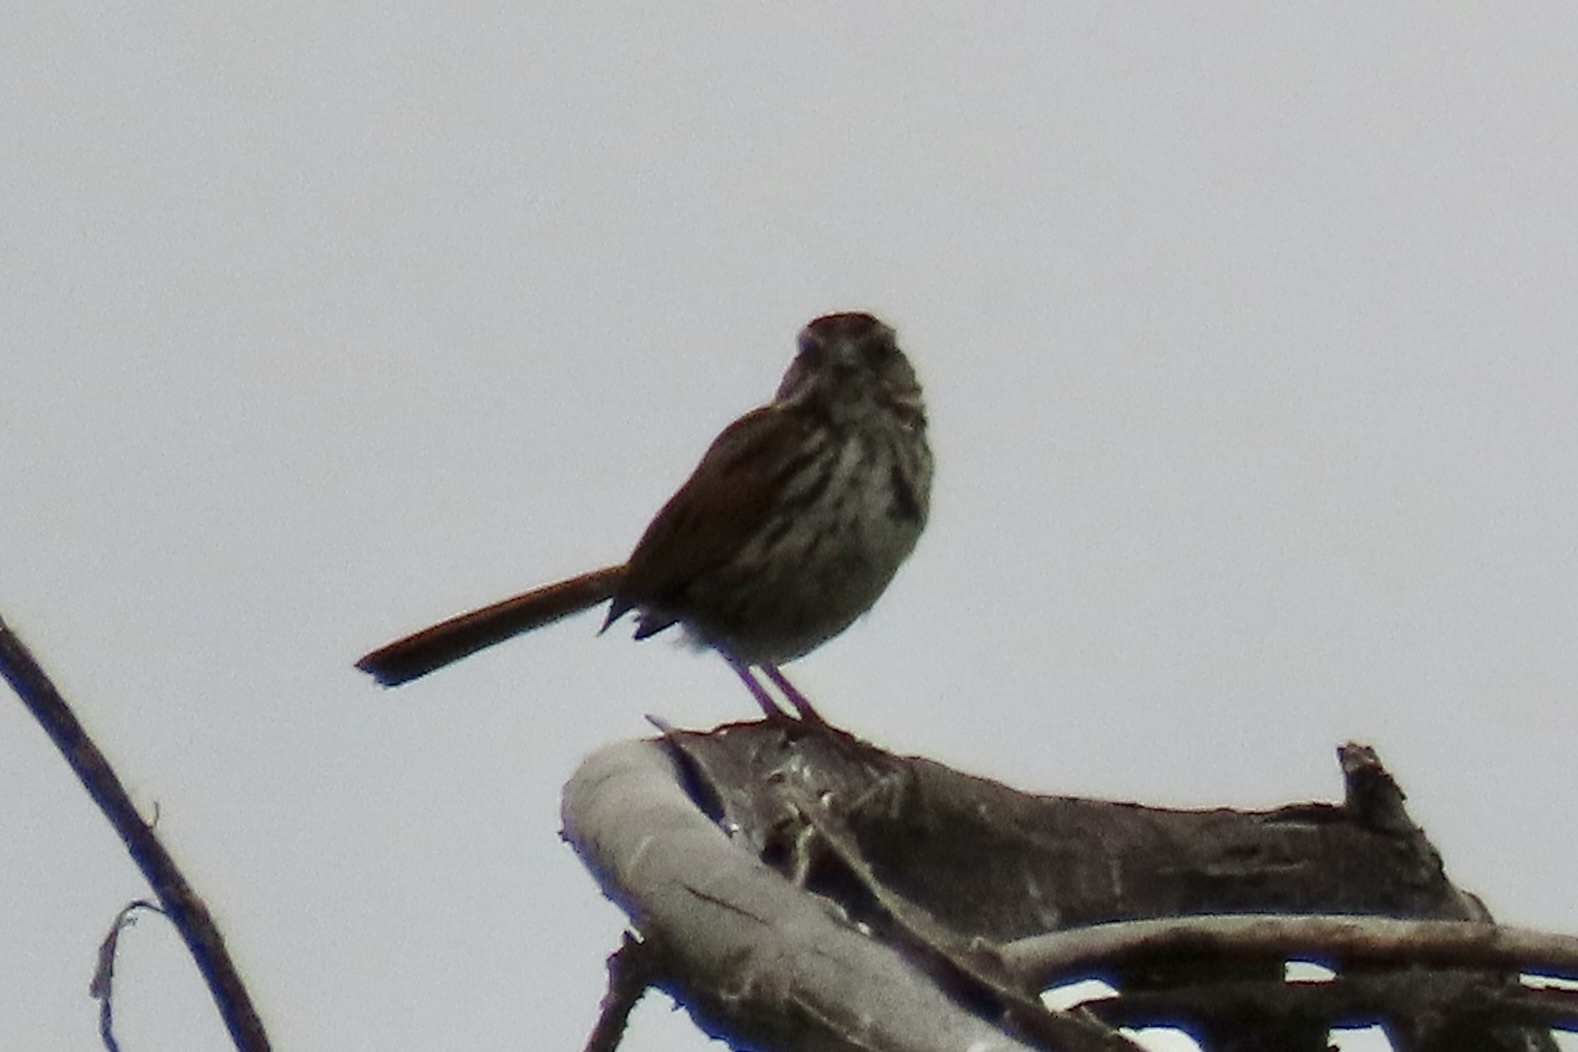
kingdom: Animalia
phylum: Chordata
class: Aves
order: Passeriformes
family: Passerellidae
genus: Melospiza
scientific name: Melospiza melodia
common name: Song sparrow
